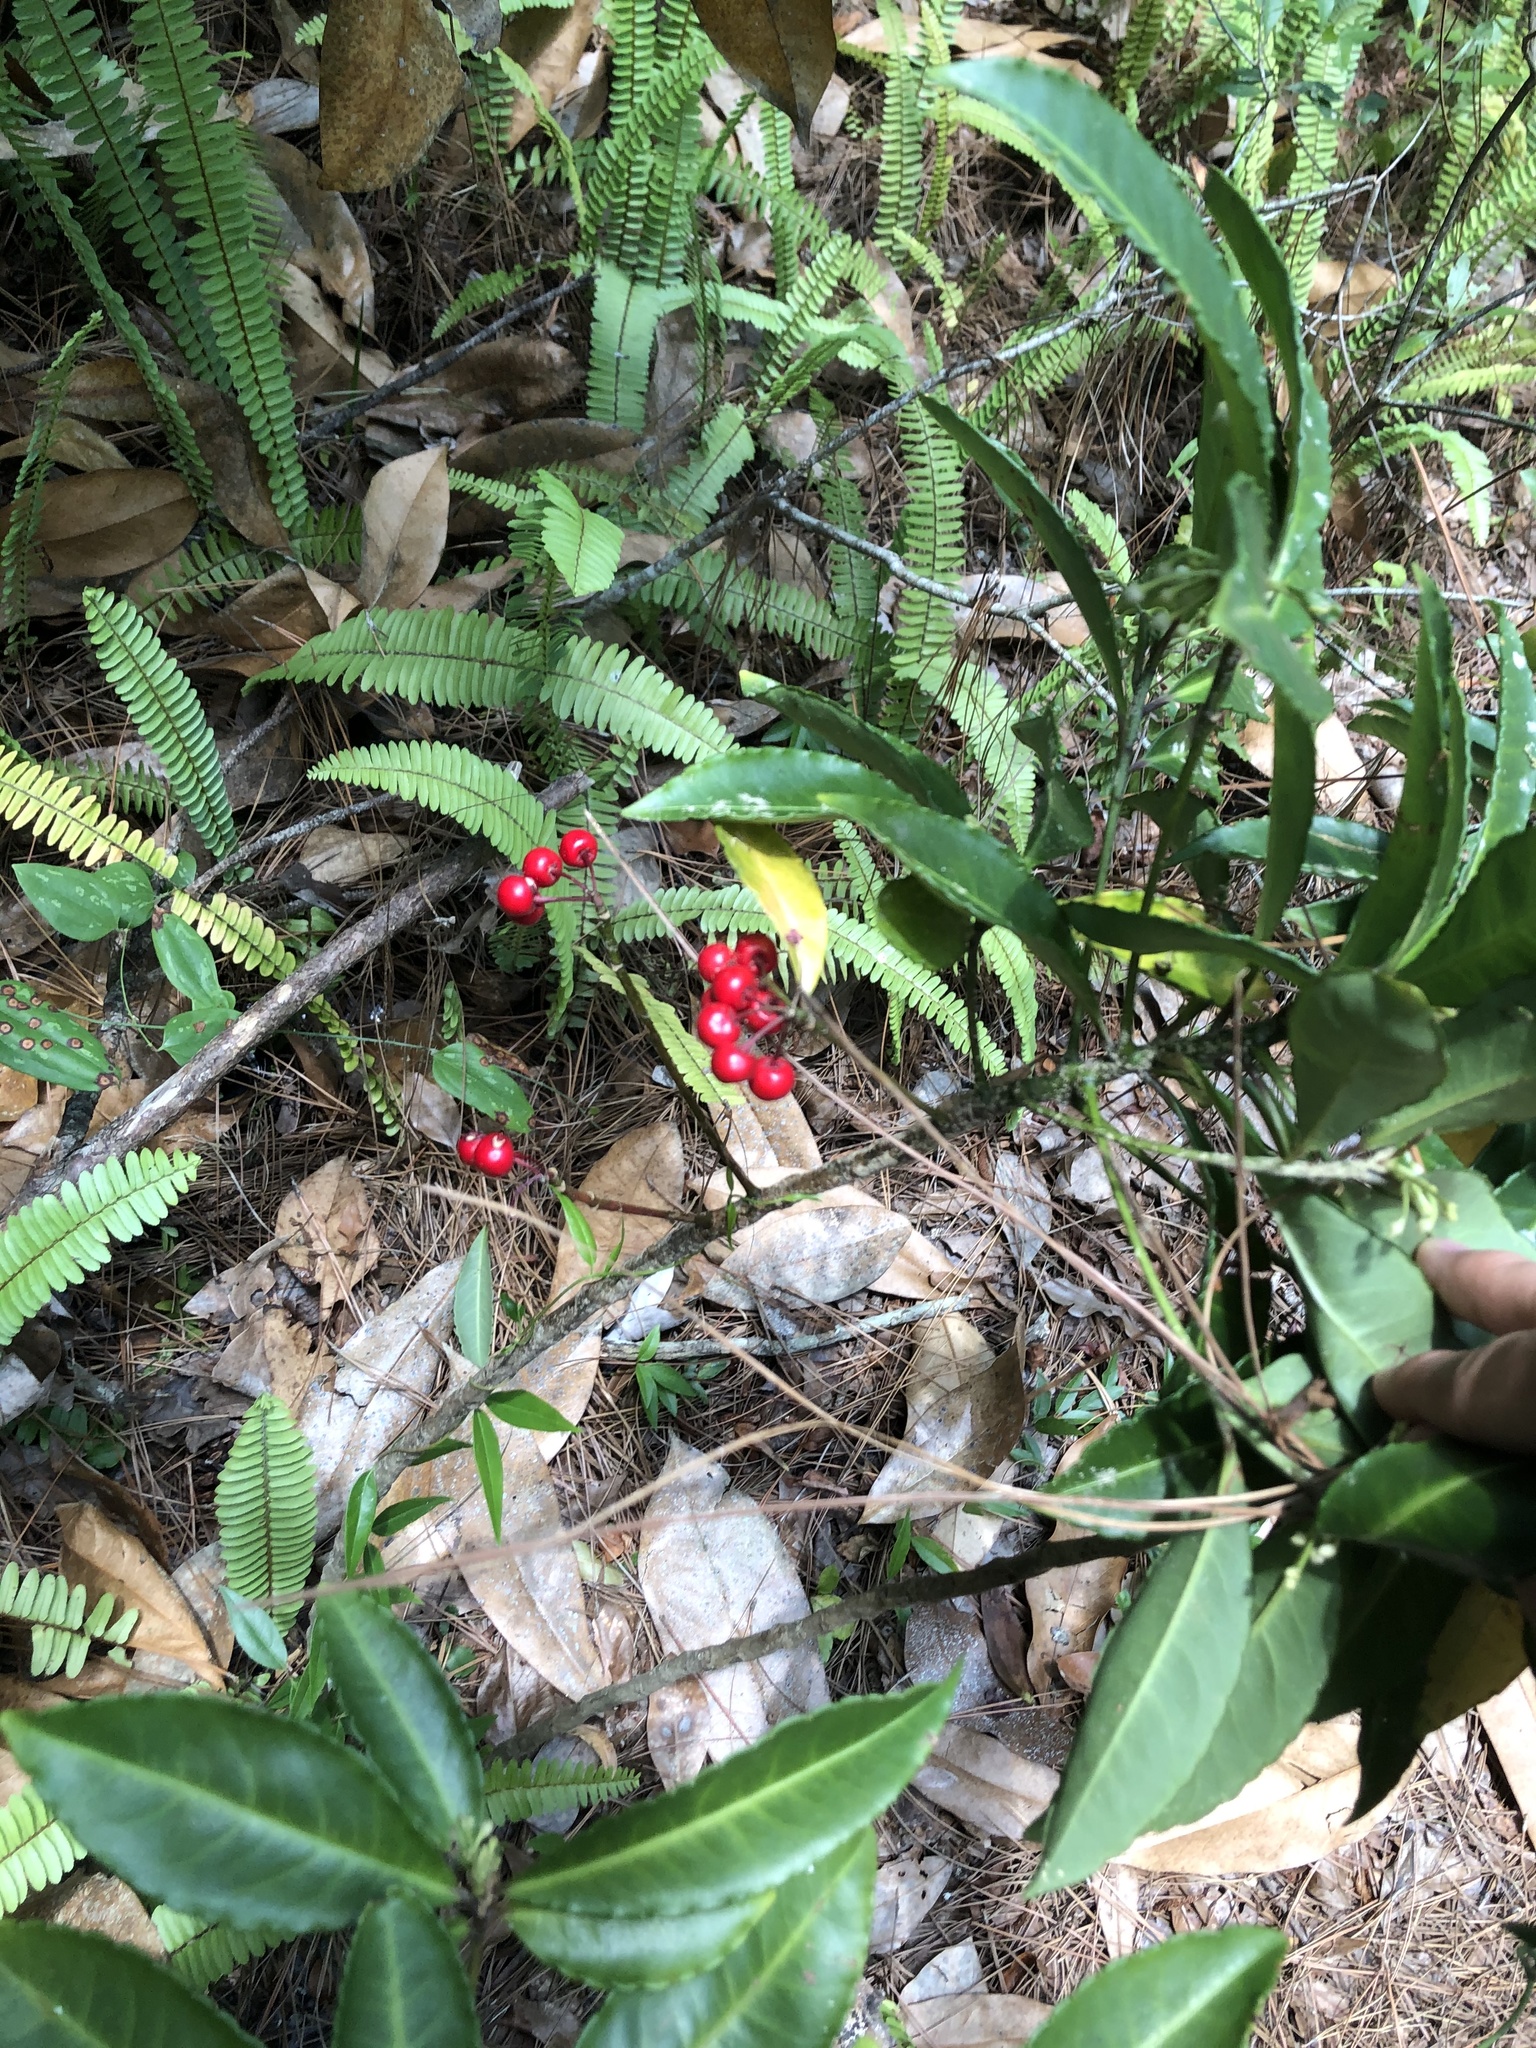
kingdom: Plantae
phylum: Tracheophyta
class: Magnoliopsida
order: Ericales
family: Primulaceae
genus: Ardisia
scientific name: Ardisia crenata
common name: Hen's eyes
